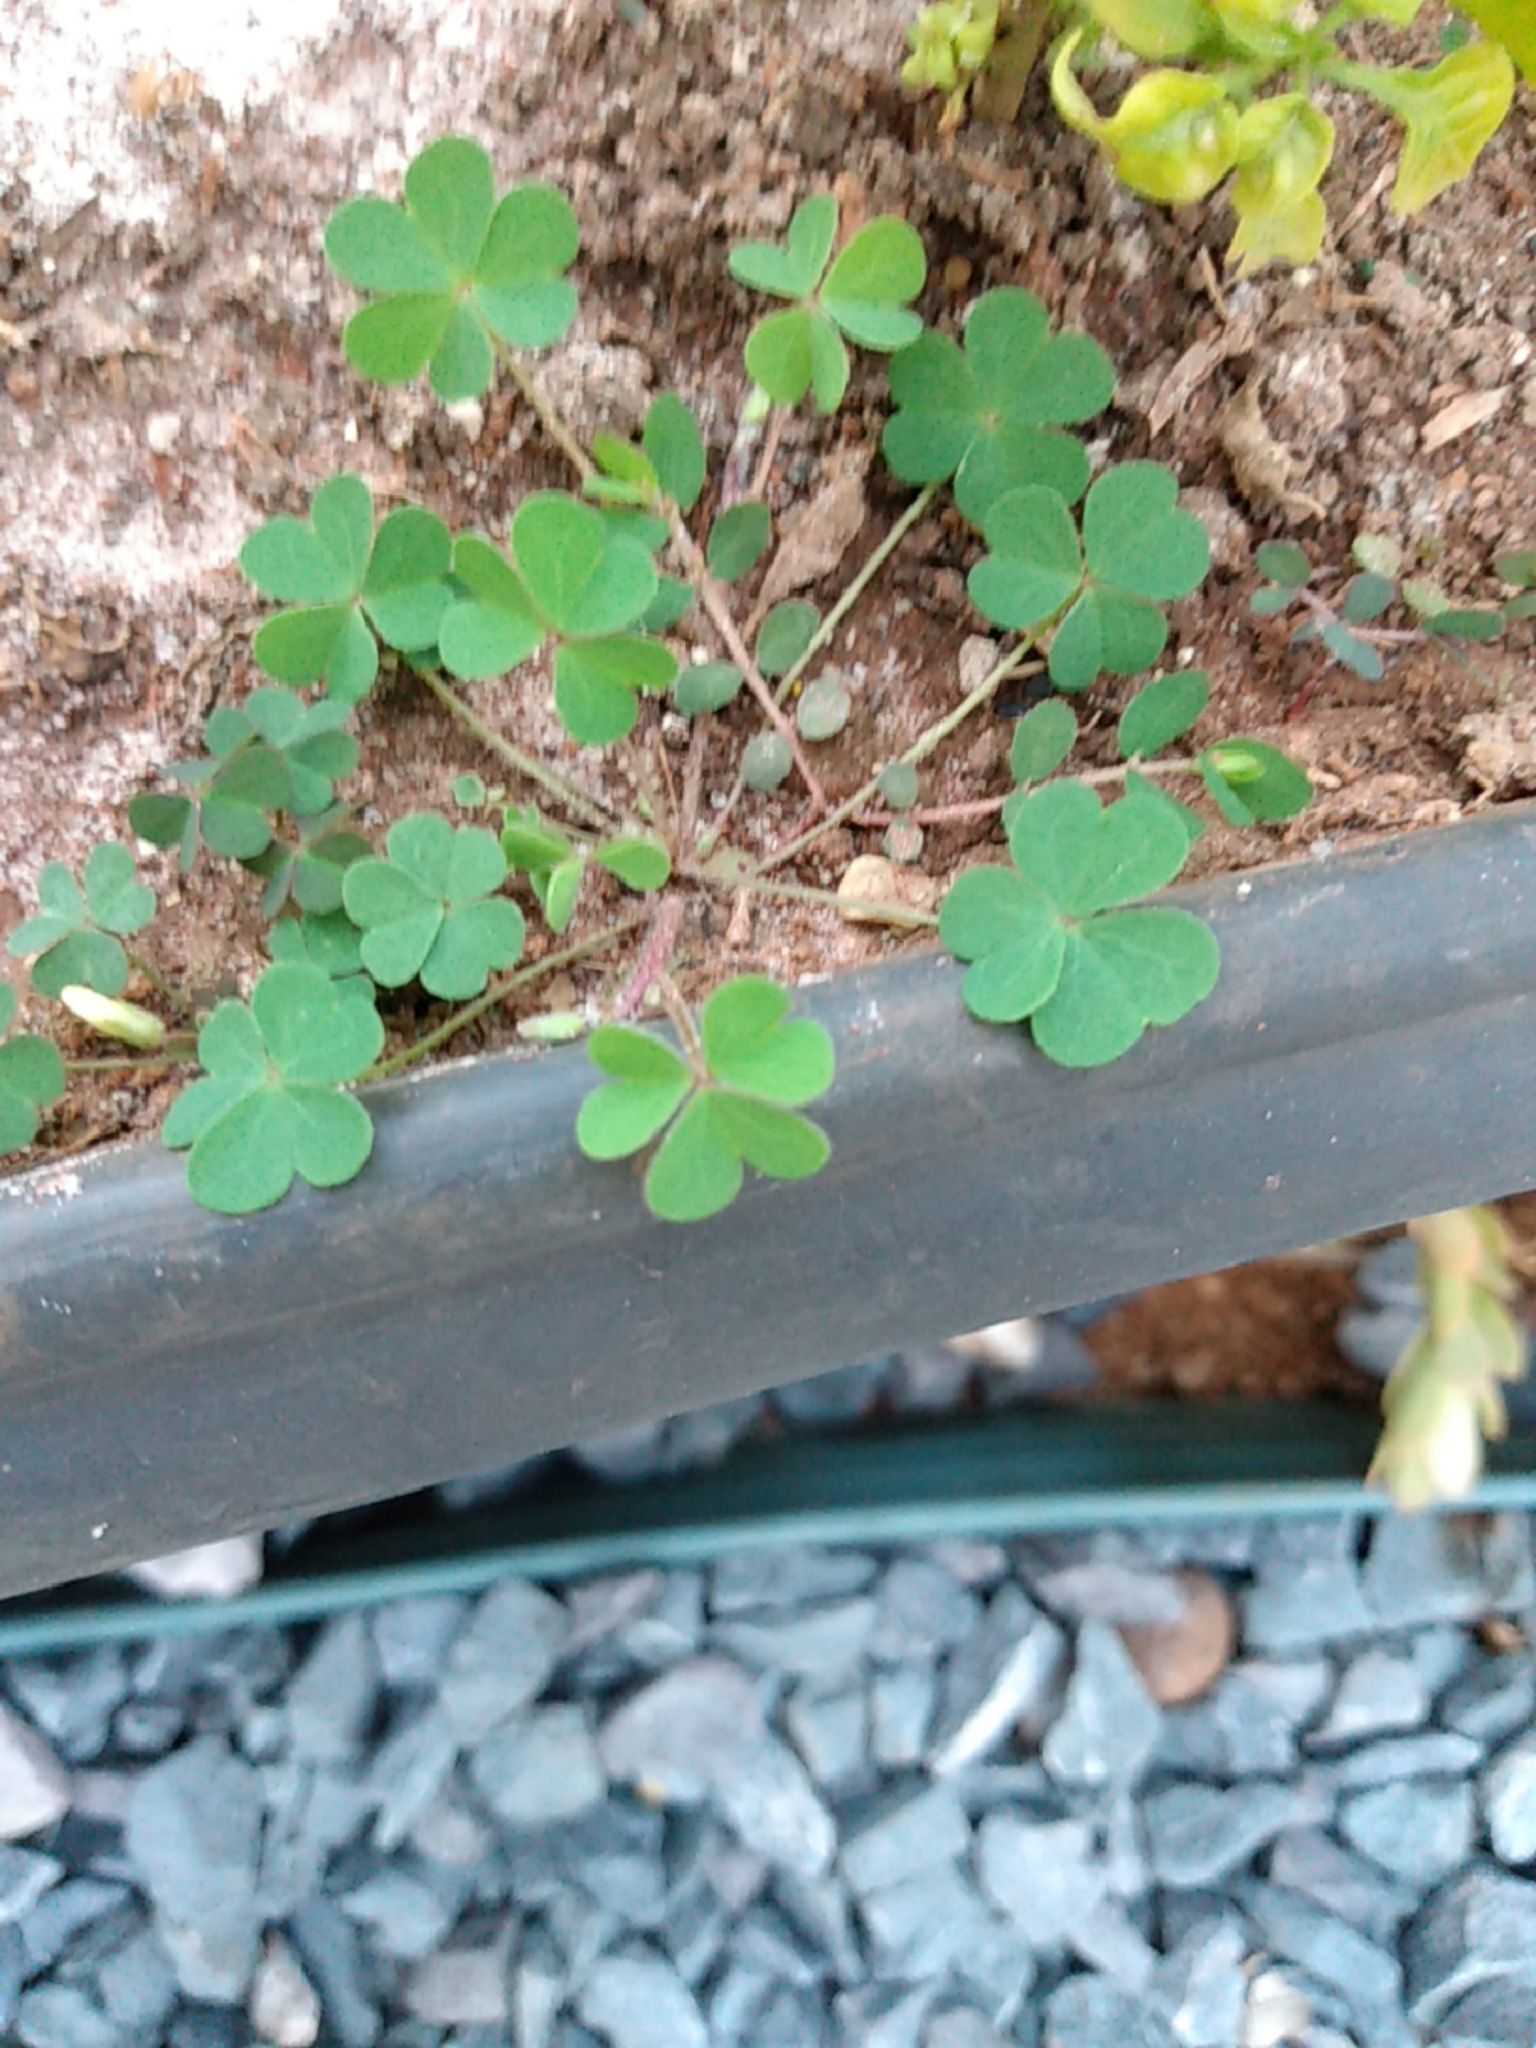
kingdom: Plantae
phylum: Tracheophyta
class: Magnoliopsida
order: Oxalidales
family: Oxalidaceae
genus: Oxalis
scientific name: Oxalis corniculata
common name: Procumbent yellow-sorrel
